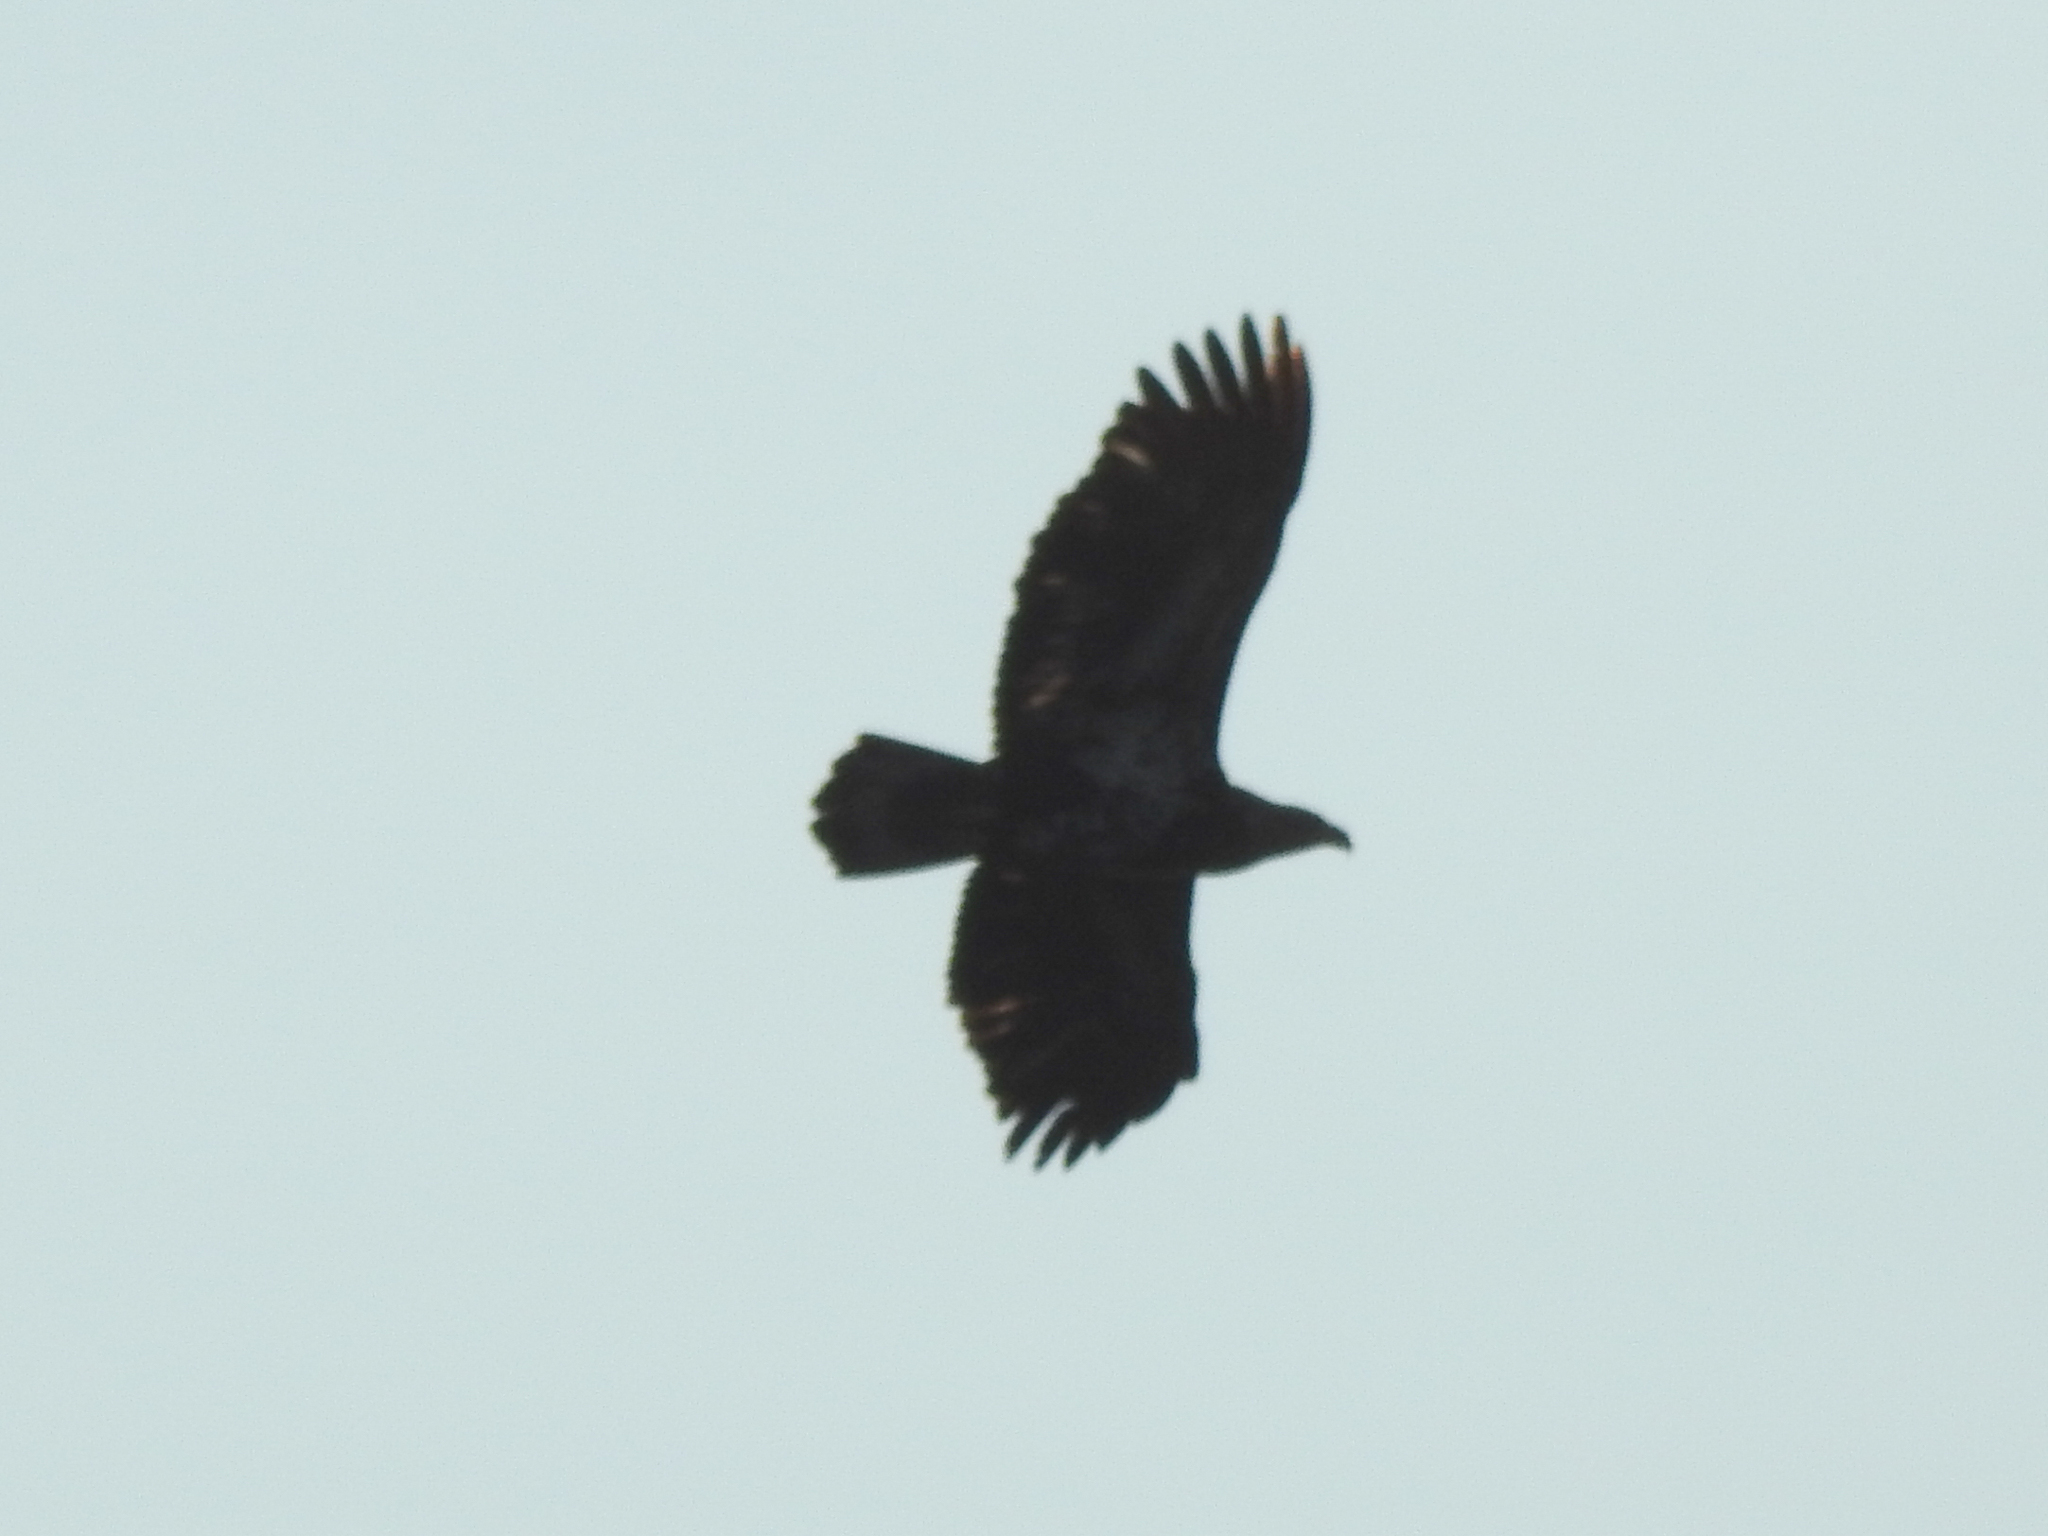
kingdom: Animalia
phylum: Chordata
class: Aves
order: Accipitriformes
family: Accipitridae
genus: Haliaeetus
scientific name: Haliaeetus leucocephalus
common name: Bald eagle
